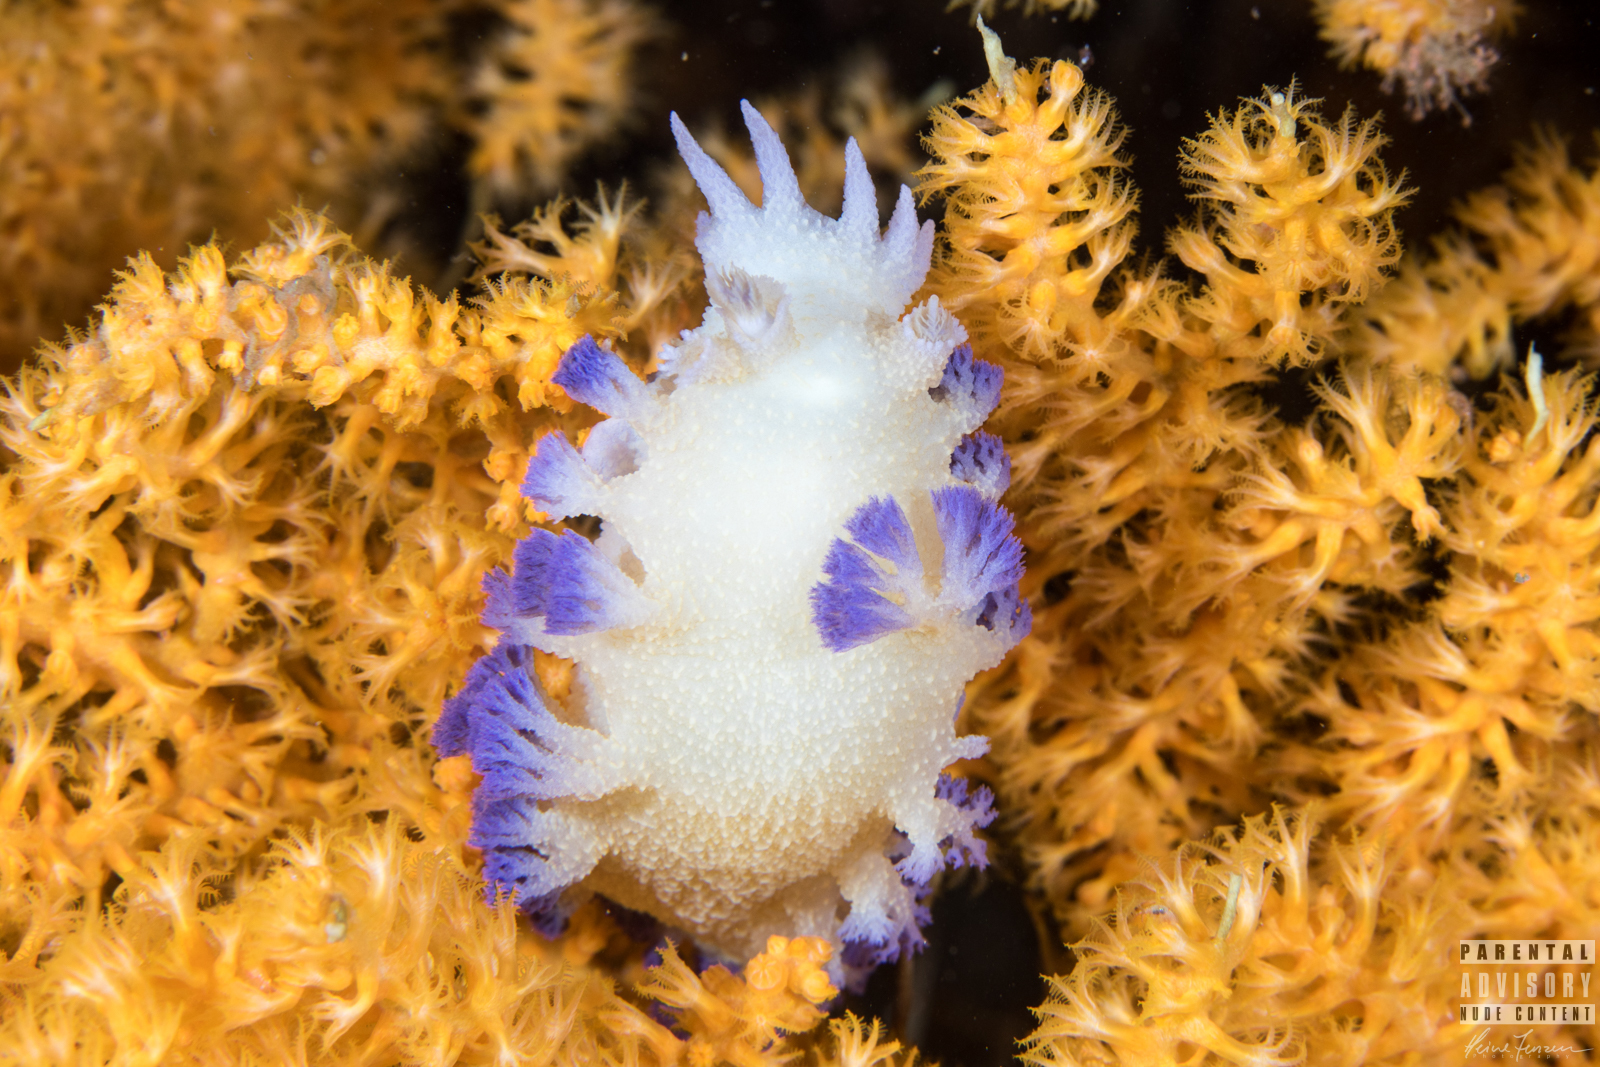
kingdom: Animalia
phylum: Mollusca
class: Gastropoda
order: Nudibranchia
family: Tritoniidae
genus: Tritonia
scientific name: Tritonia griegi
